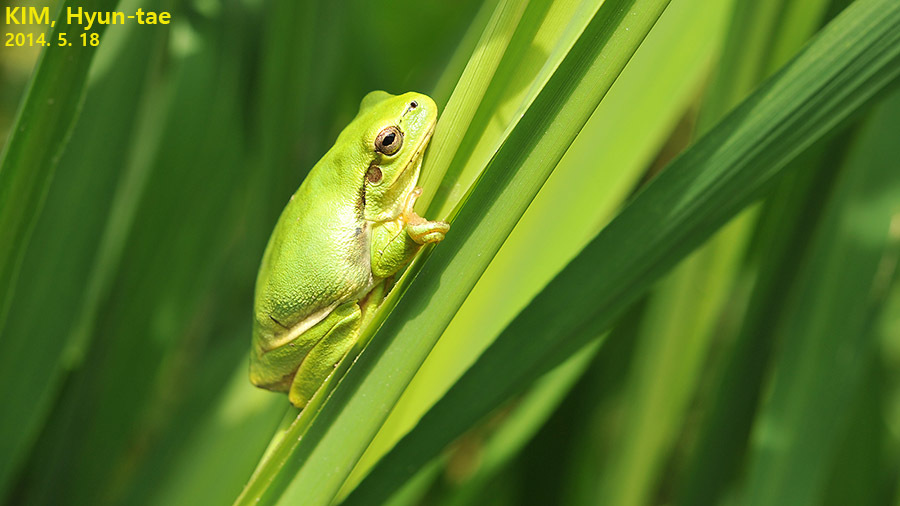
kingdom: Animalia
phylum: Chordata
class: Amphibia
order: Anura
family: Hylidae
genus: Dryophytes
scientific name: Dryophytes japonicus
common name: Japanese treefrog
